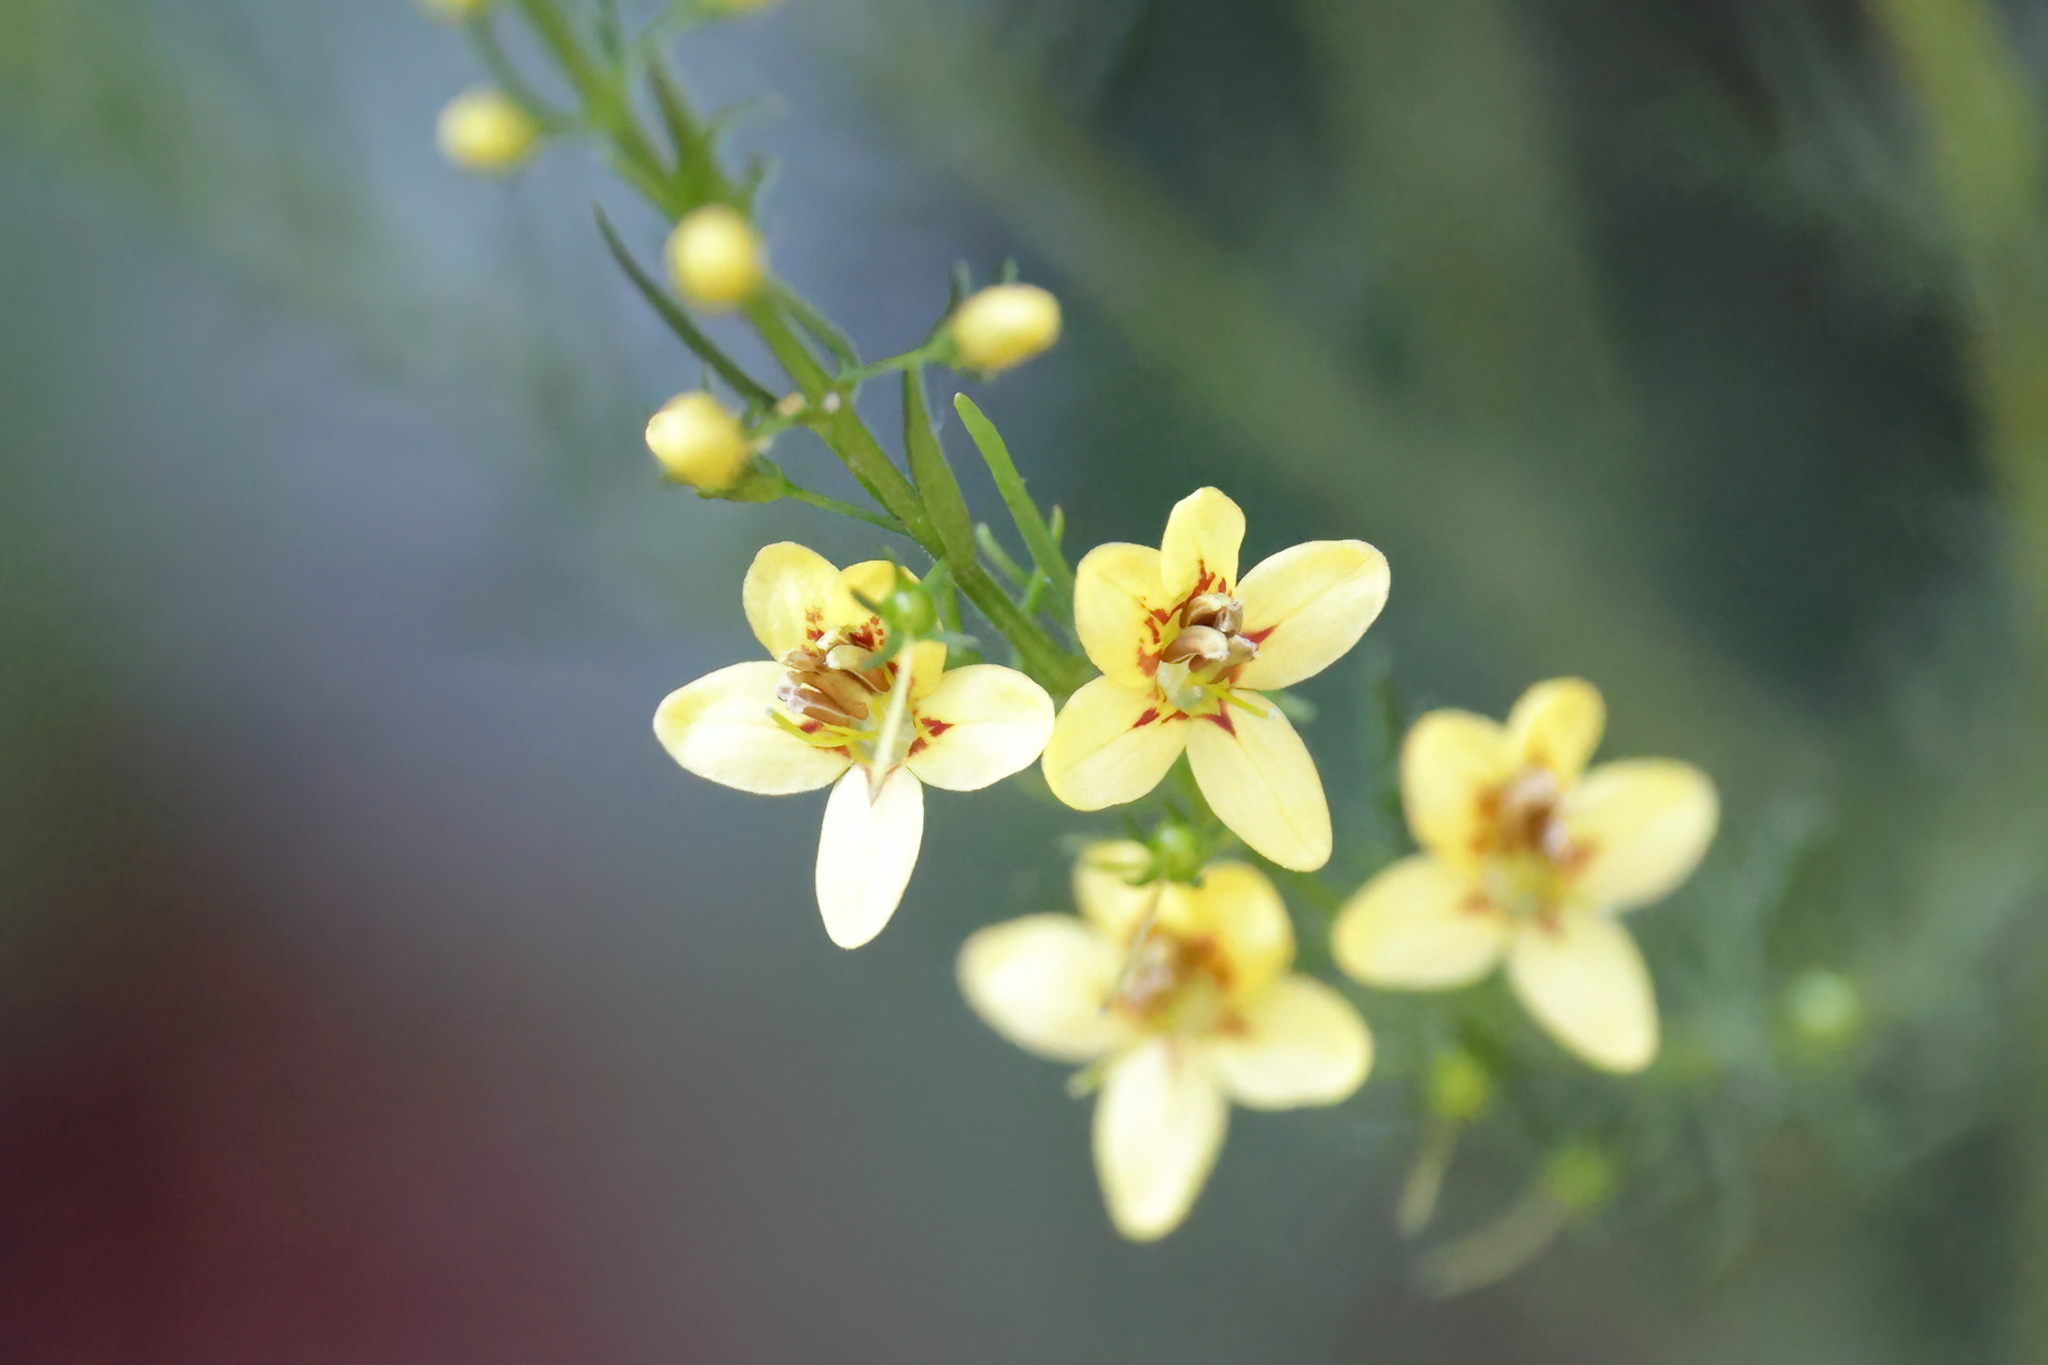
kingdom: Plantae
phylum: Tracheophyta
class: Magnoliopsida
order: Lamiales
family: Orobanchaceae
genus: Seymeria
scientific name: Seymeria cassioides
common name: Yaupon black-senna
